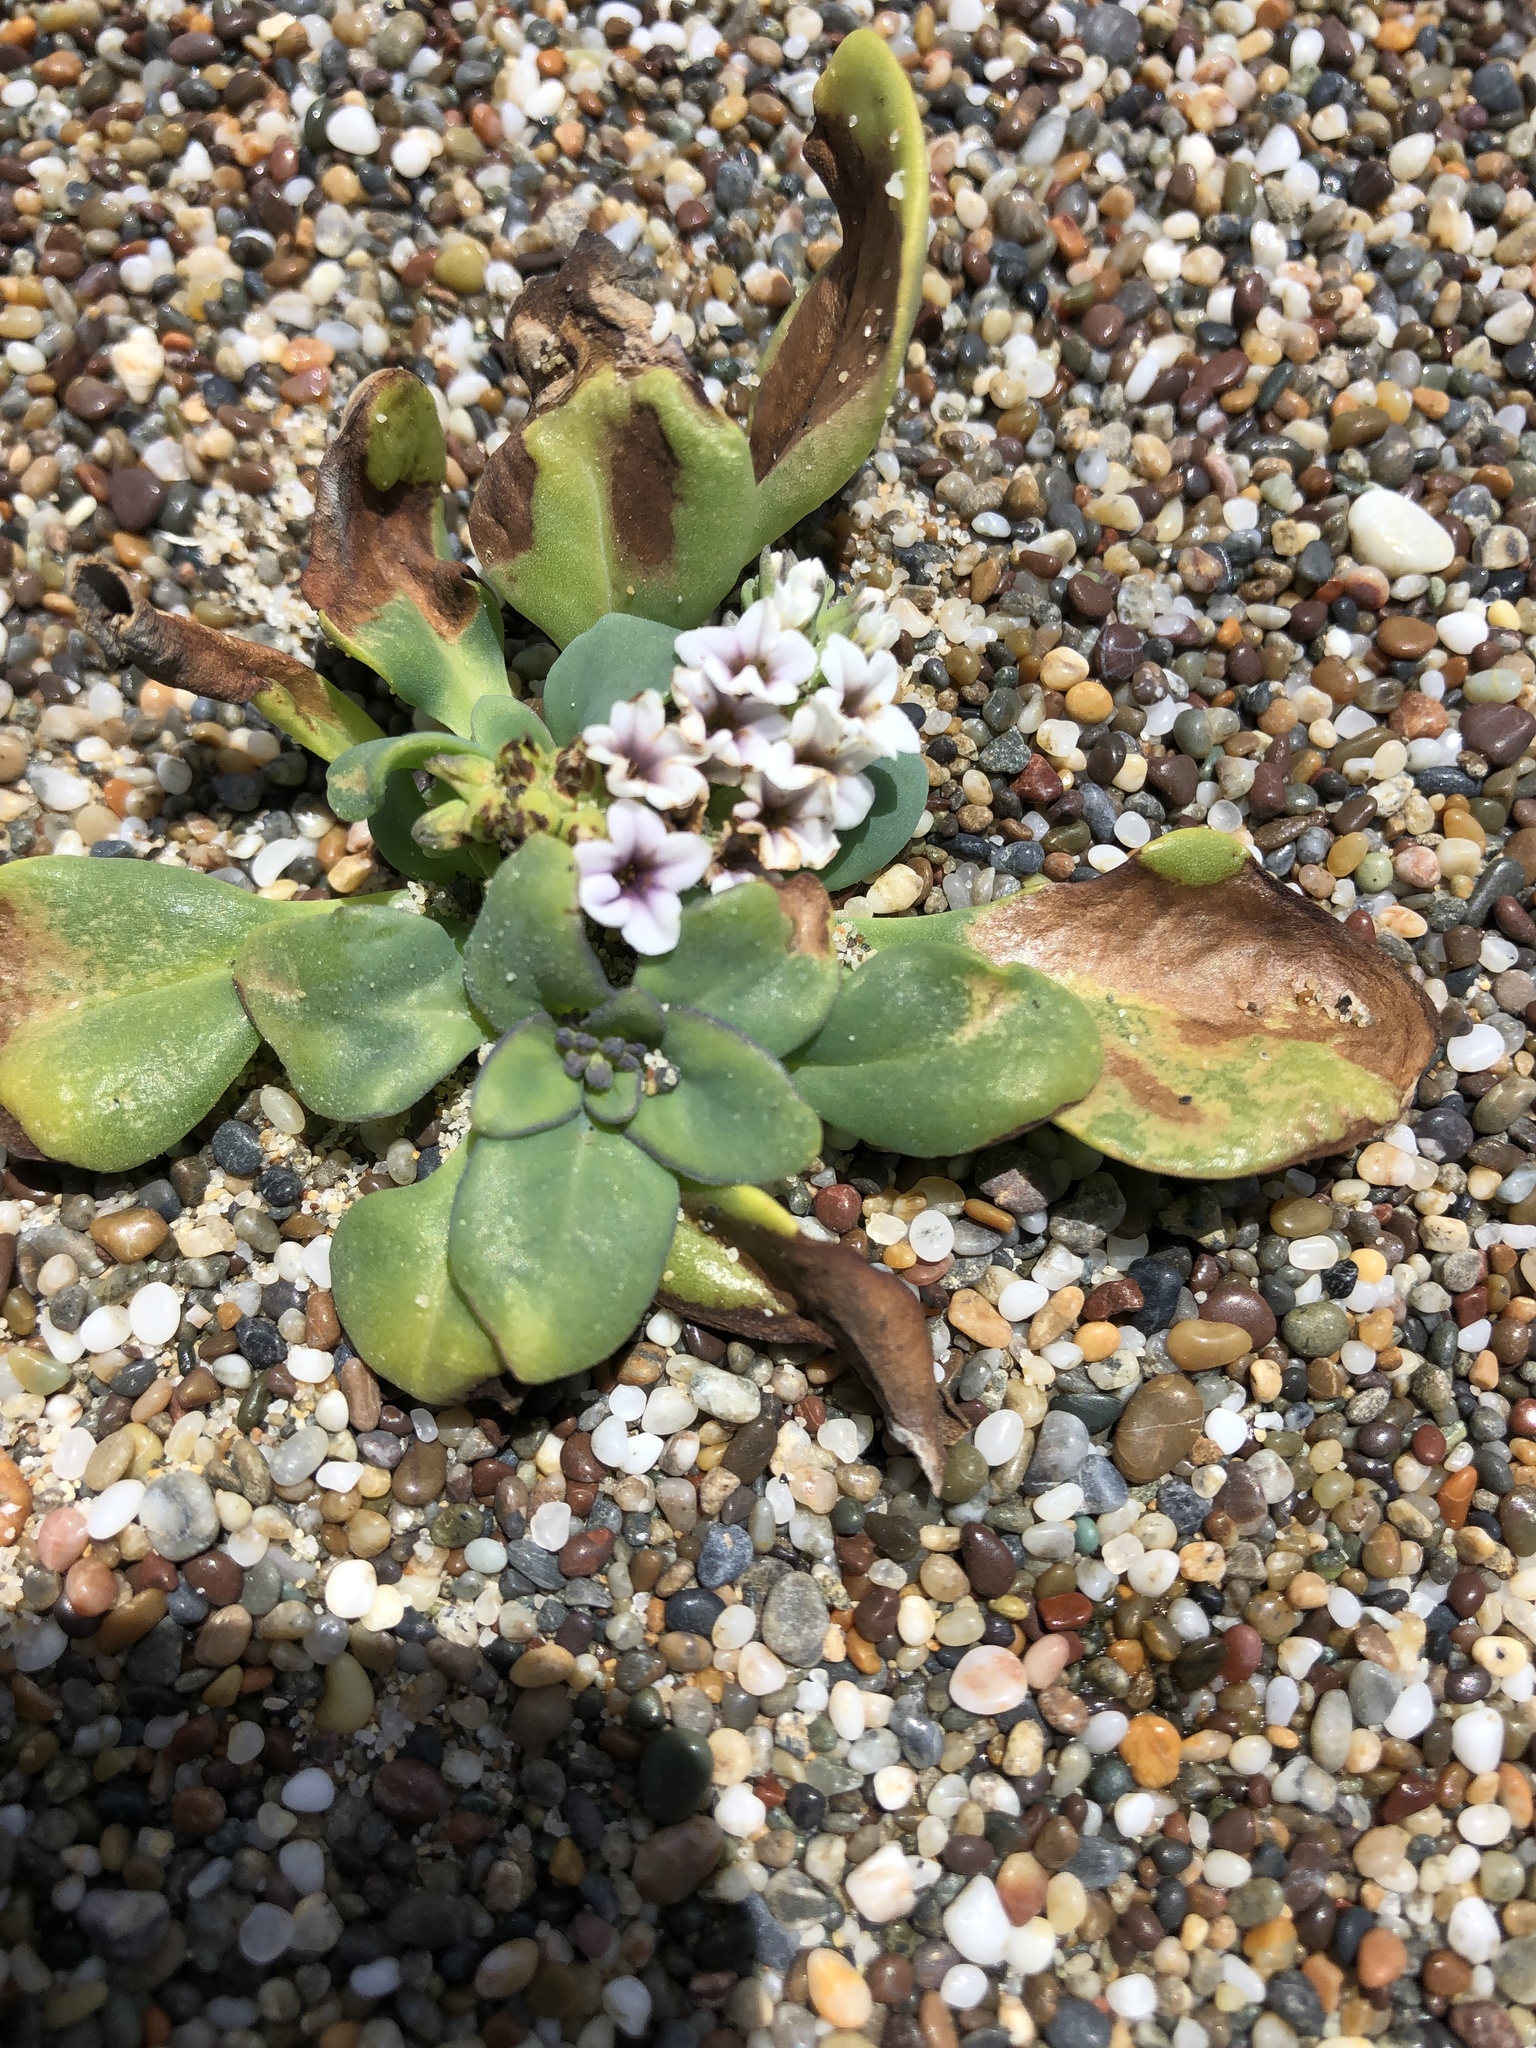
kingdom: Plantae
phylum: Tracheophyta
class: Magnoliopsida
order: Boraginales
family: Heliotropiaceae
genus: Heliotropium
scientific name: Heliotropium curassavicum
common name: Seaside heliotrope
